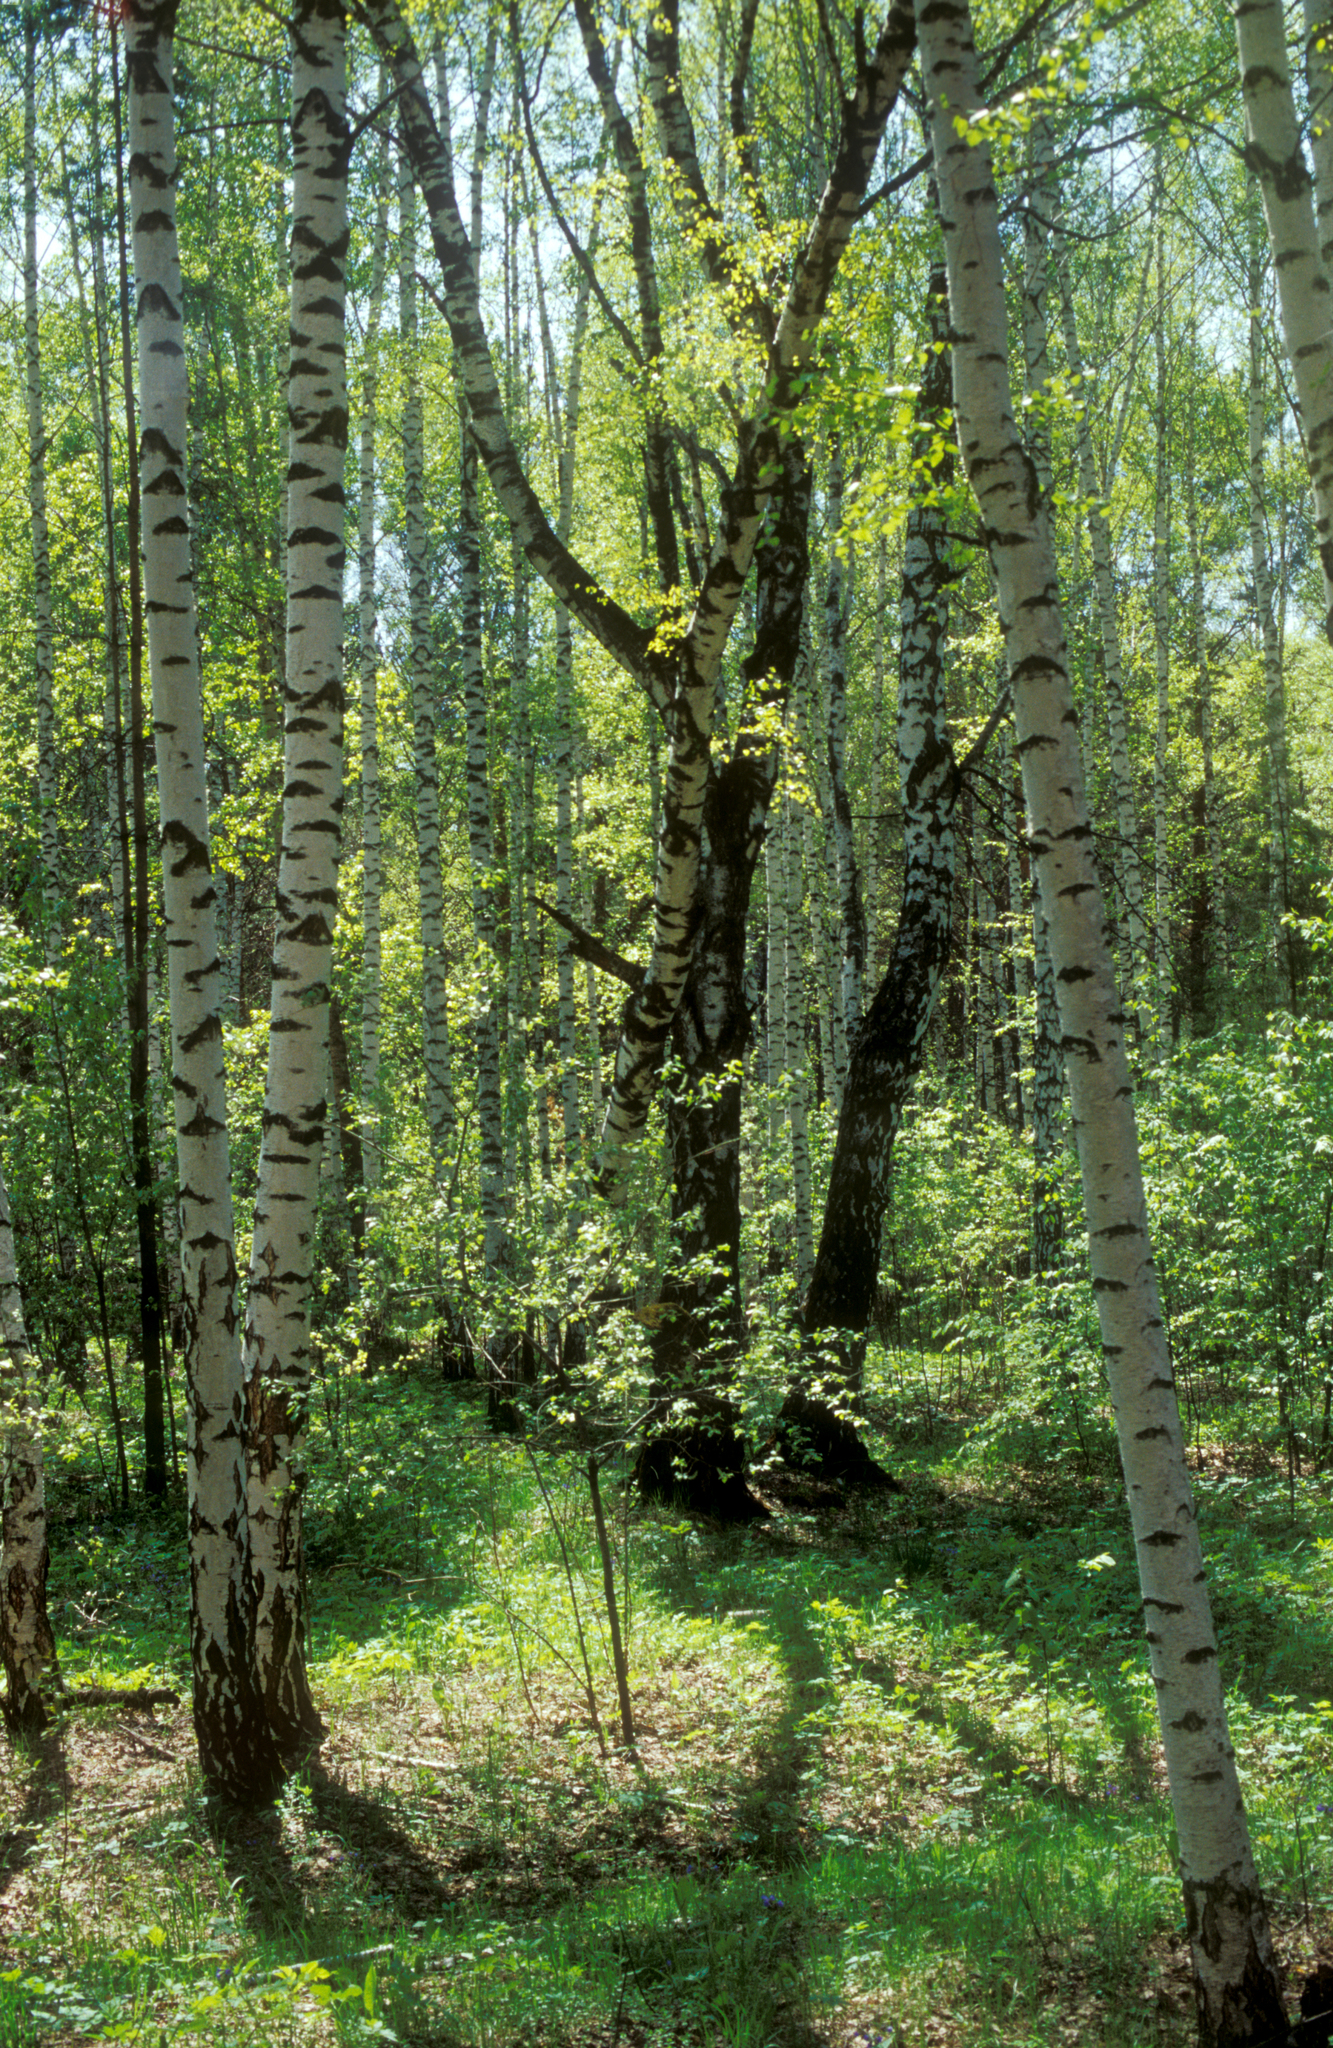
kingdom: Plantae
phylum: Tracheophyta
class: Magnoliopsida
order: Fagales
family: Betulaceae
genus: Betula
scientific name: Betula pendula
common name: Silver birch
